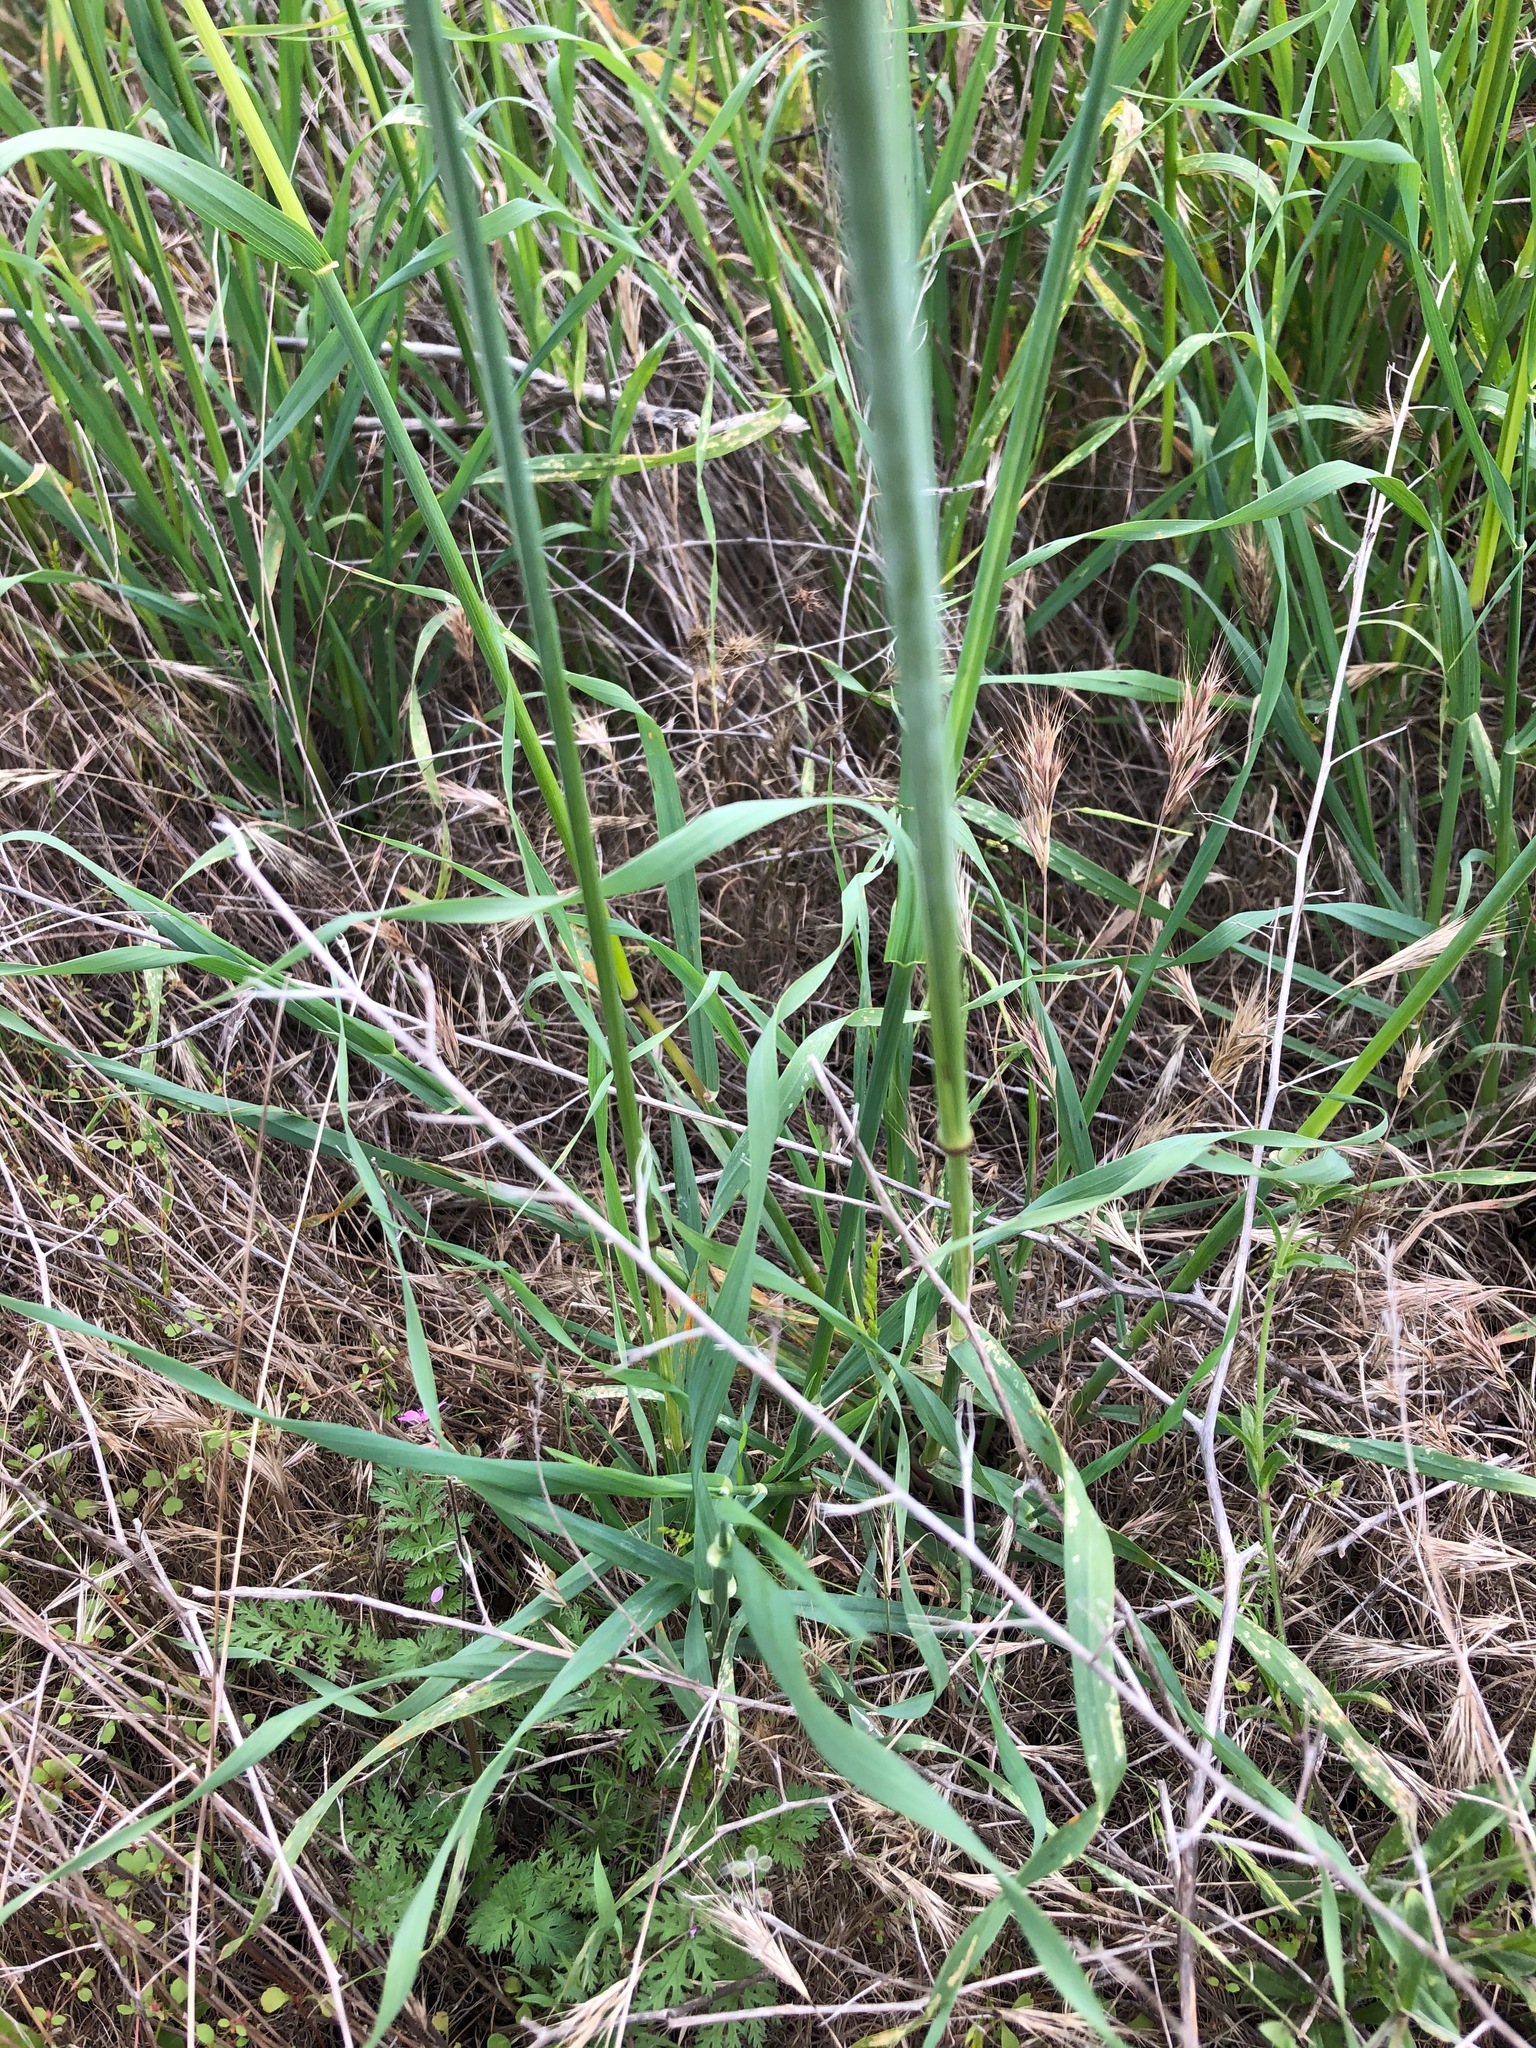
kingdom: Plantae
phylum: Tracheophyta
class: Liliopsida
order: Poales
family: Poaceae
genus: Avena
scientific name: Avena barbata
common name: Slender oat
